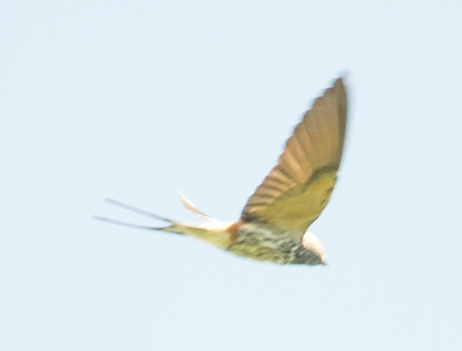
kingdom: Animalia
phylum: Chordata
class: Aves
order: Passeriformes
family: Hirundinidae
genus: Cecropis
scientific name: Cecropis abyssinica
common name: Lesser striped-swallow
